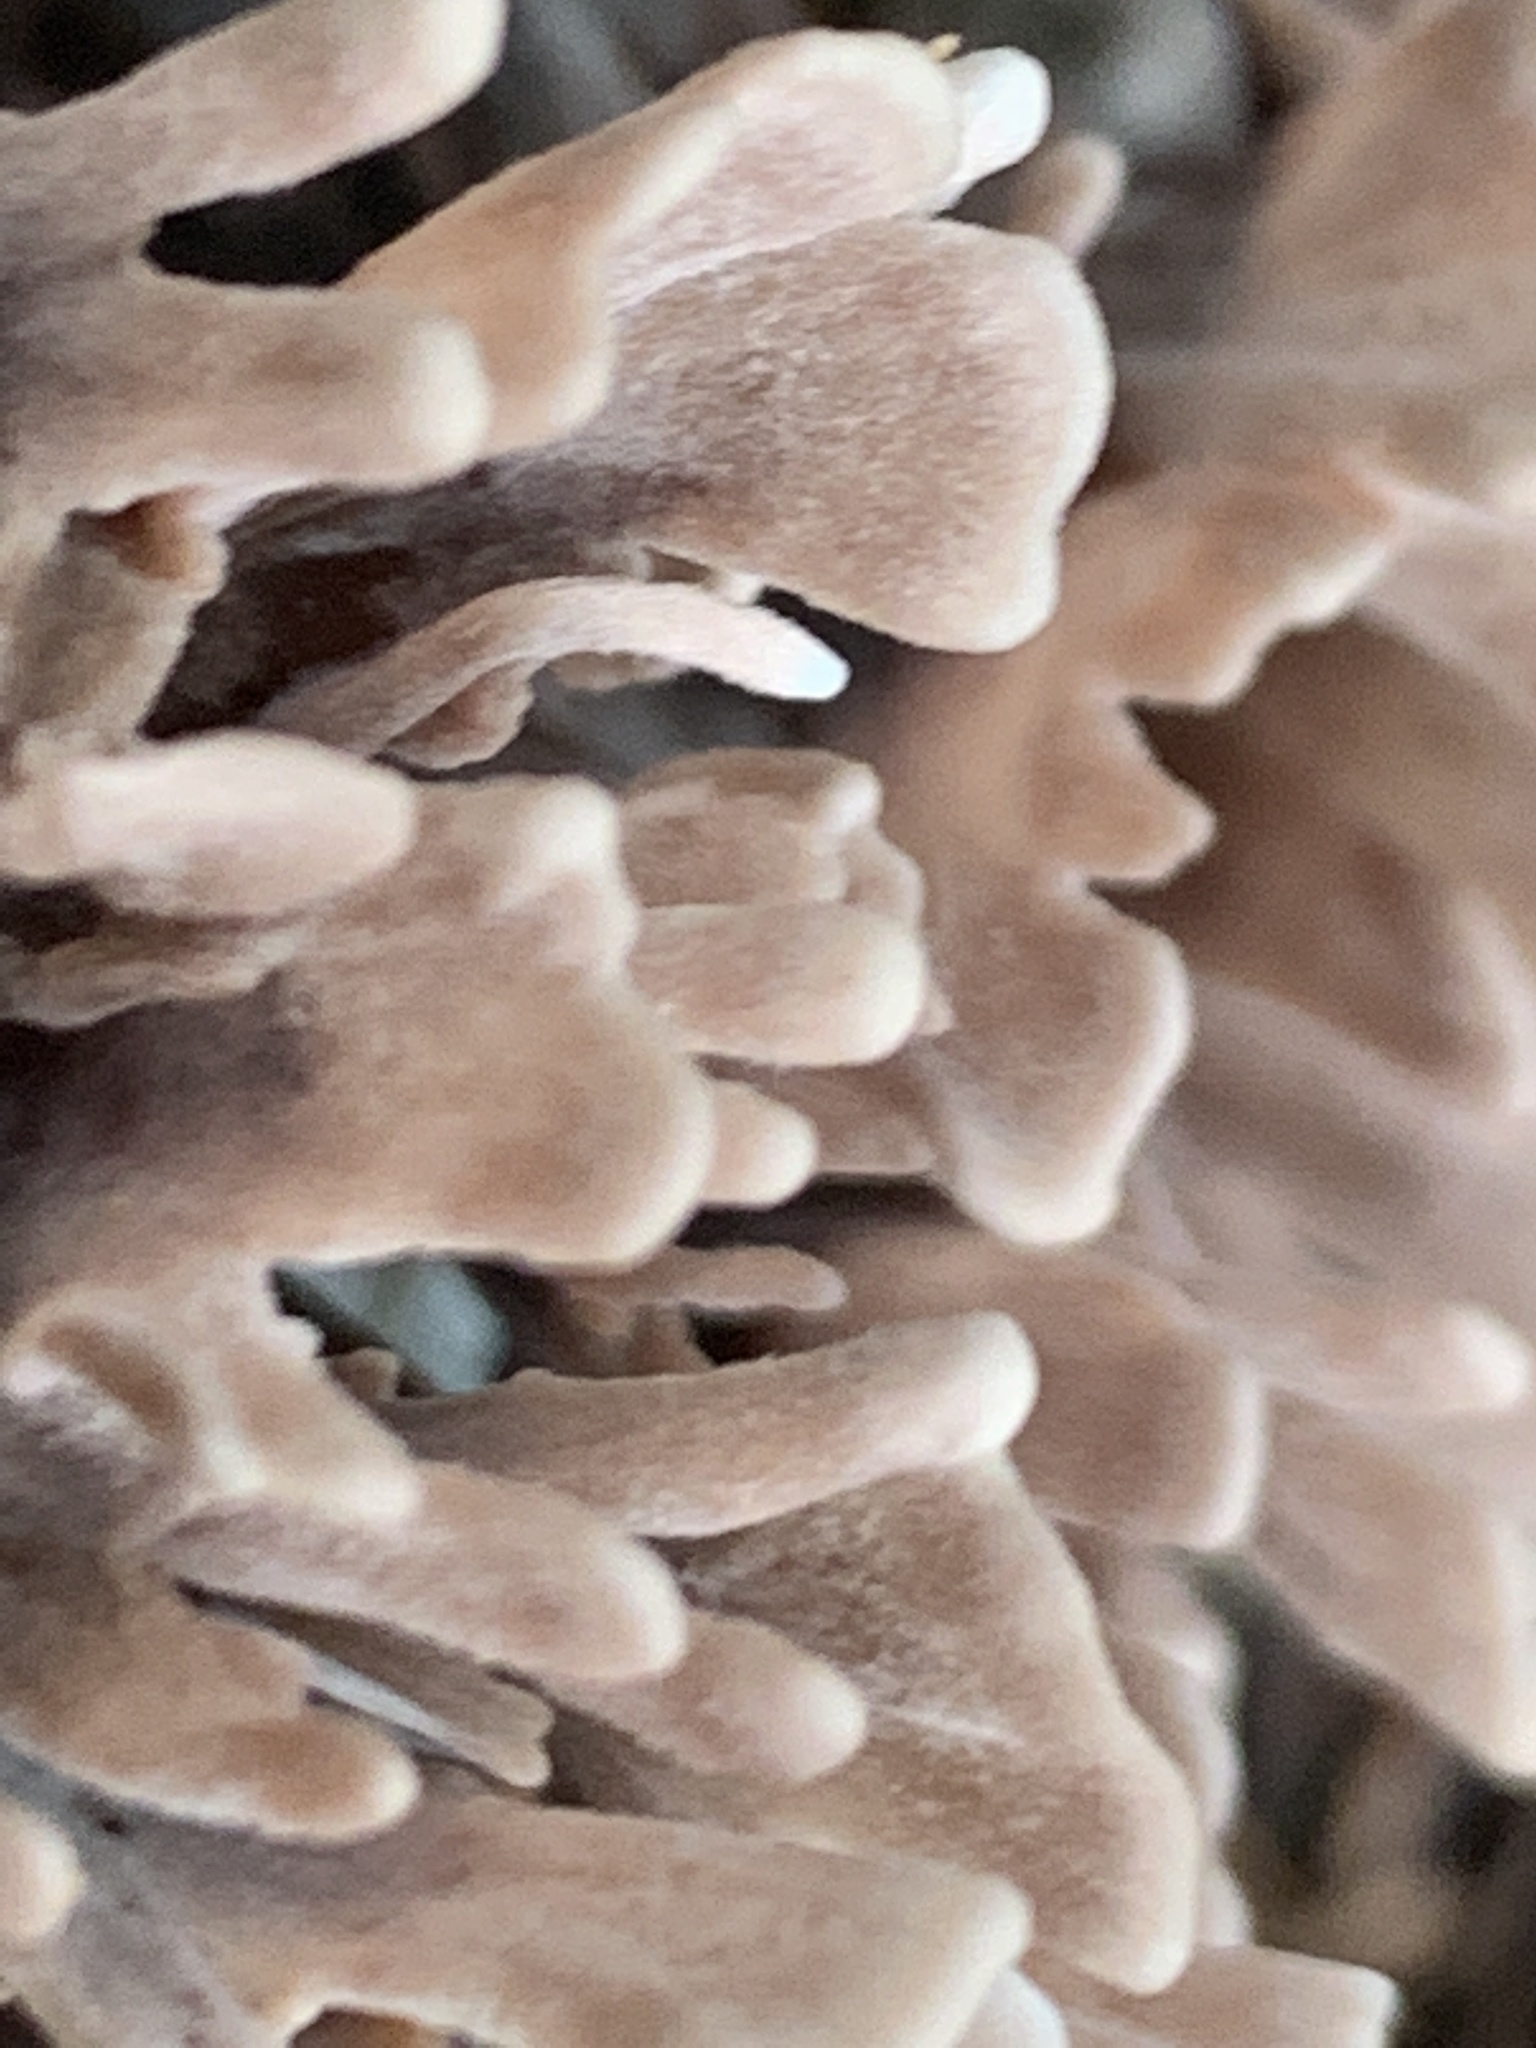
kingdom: Fungi
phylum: Basidiomycota
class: Agaricomycetes
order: Thelephorales
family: Thelephoraceae
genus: Thelephora
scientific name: Thelephora palmata
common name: Stinking earthfan
